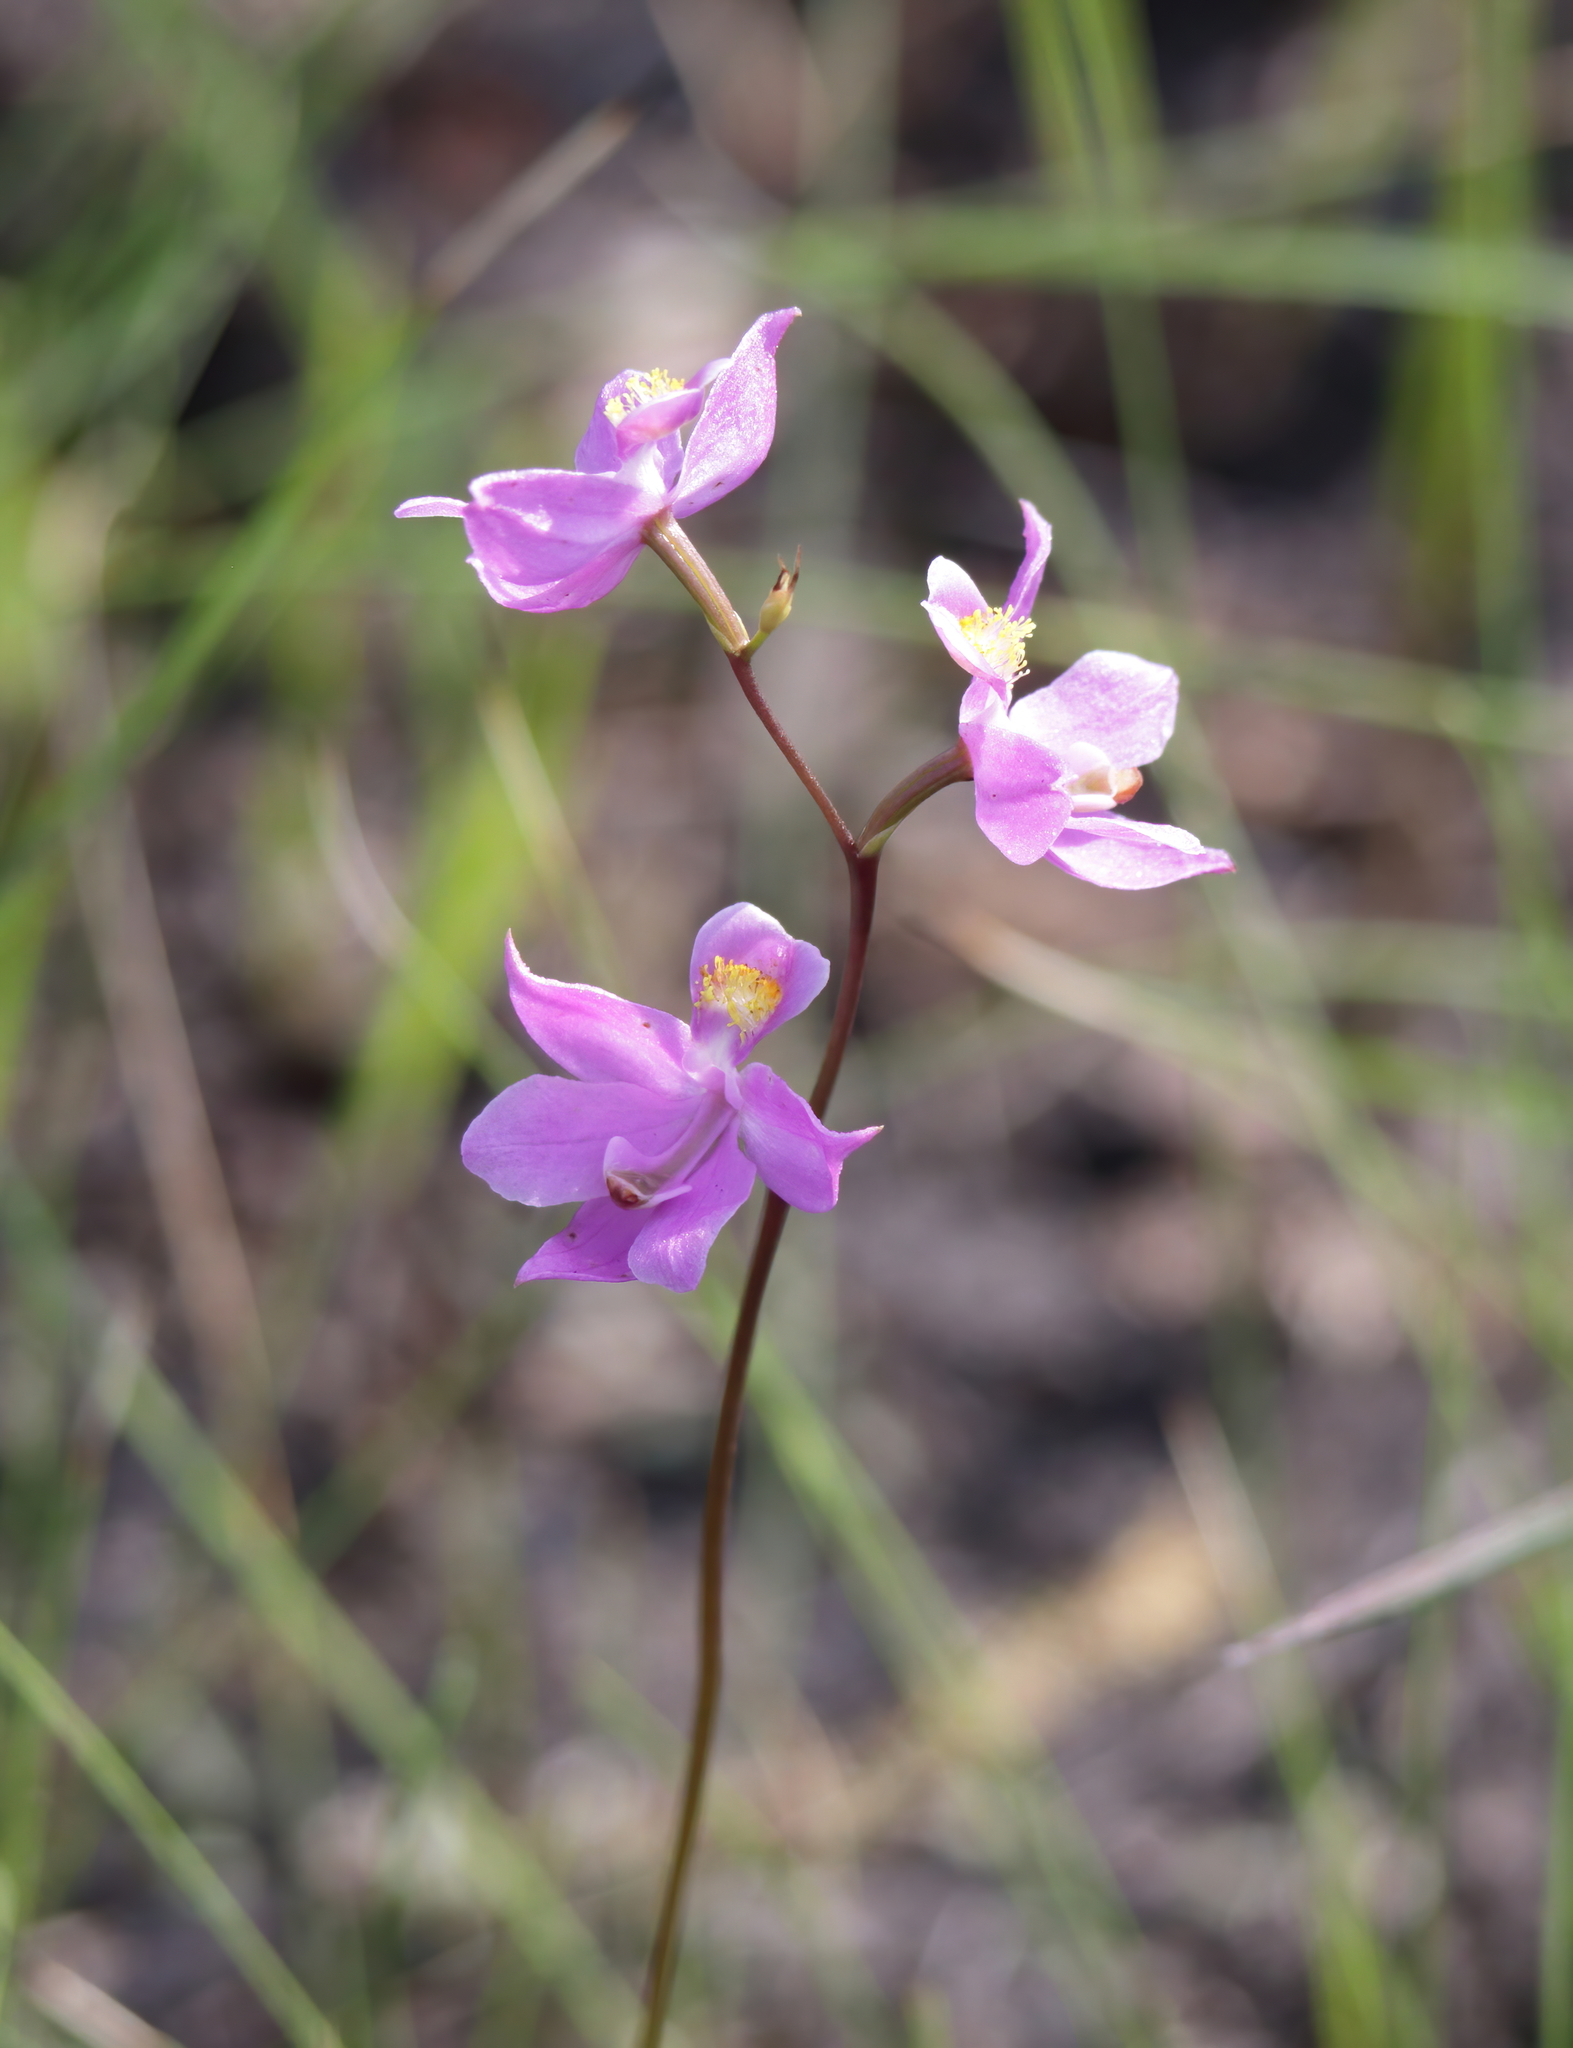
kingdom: Plantae
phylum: Tracheophyta
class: Liliopsida
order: Asparagales
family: Orchidaceae
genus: Calopogon
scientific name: Calopogon multiflorus
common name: Many-flowered grass-pink orchid
